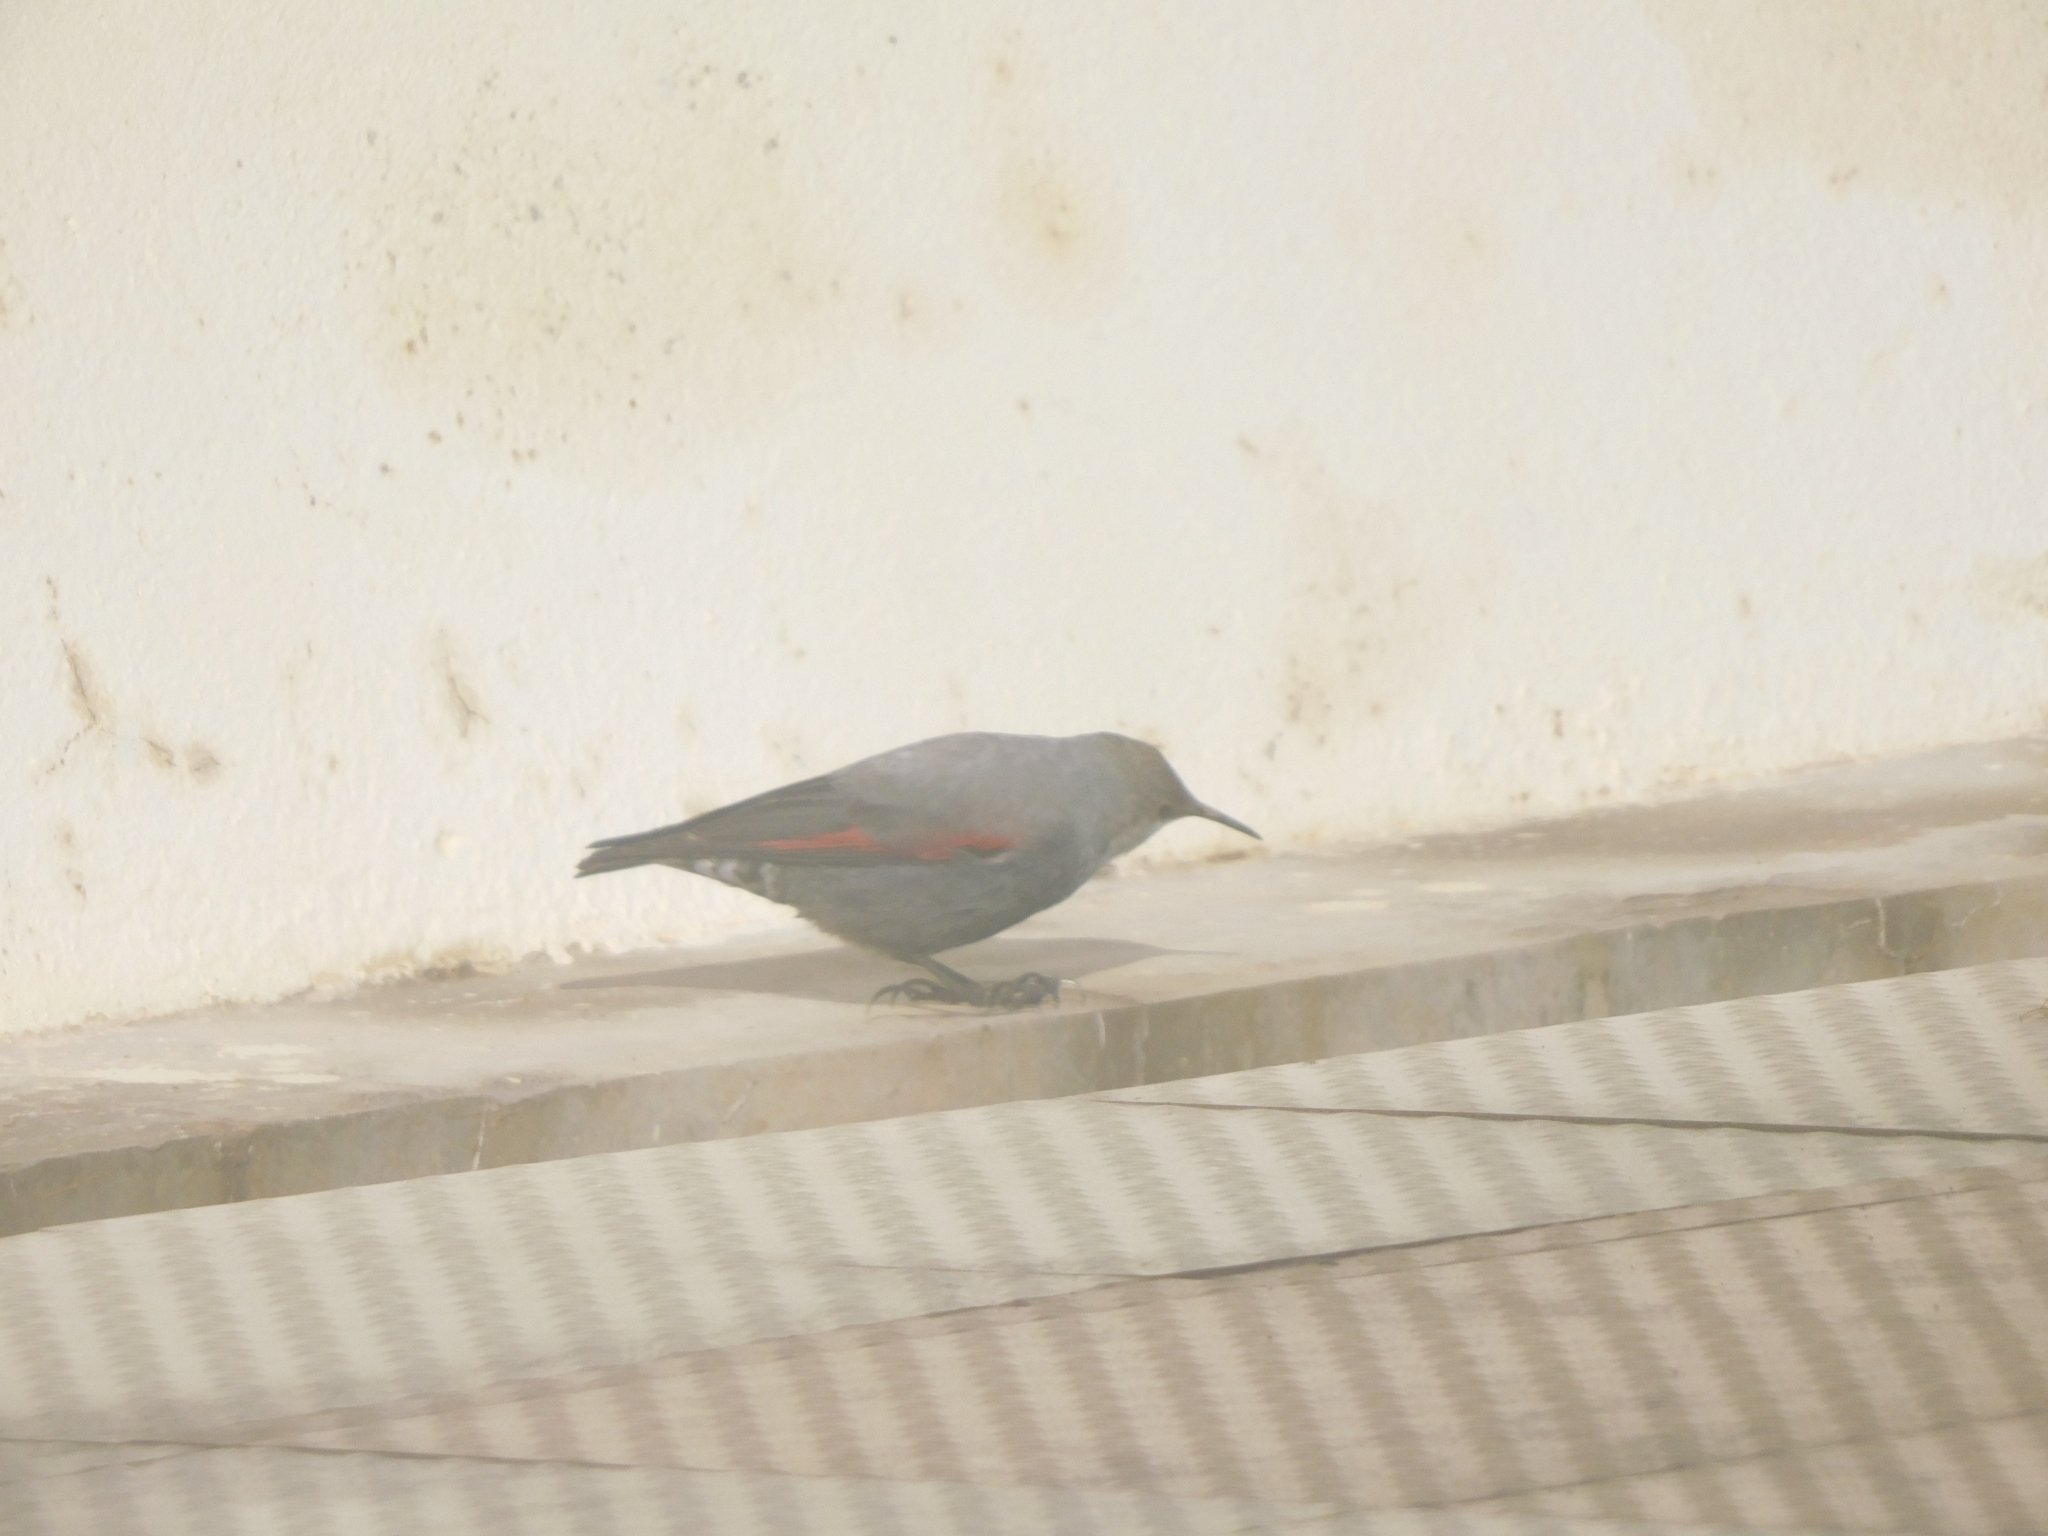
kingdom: Animalia
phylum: Chordata
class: Aves
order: Passeriformes
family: Tichodromidae
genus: Tichodroma
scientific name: Tichodroma muraria
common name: Wallcreeper
